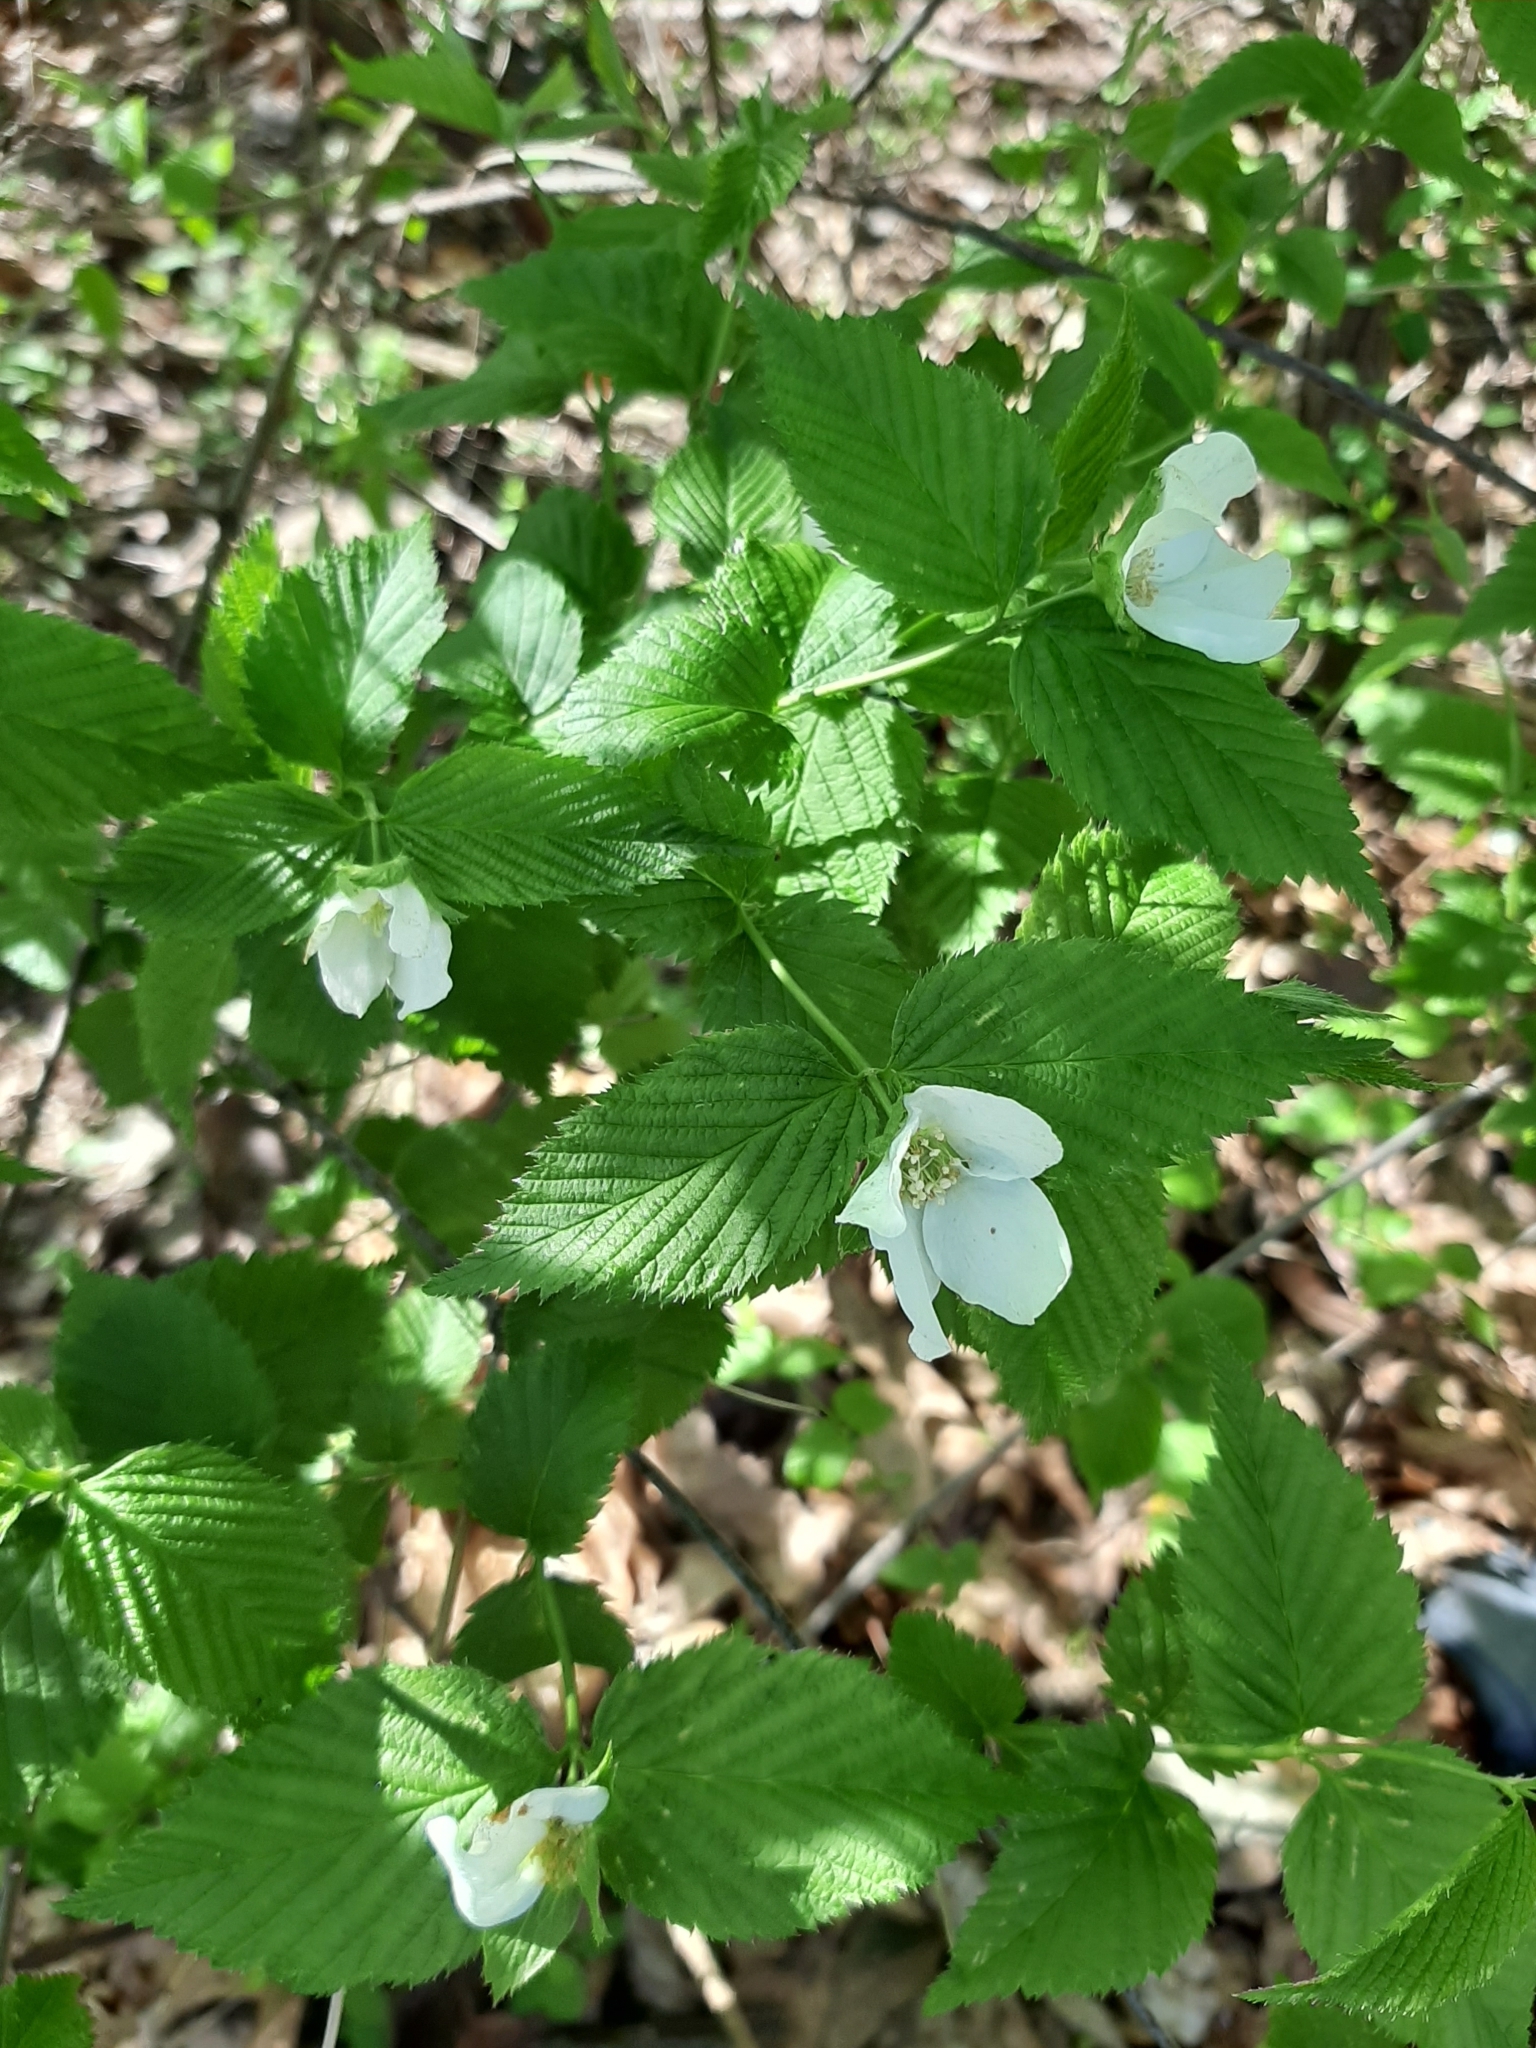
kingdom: Plantae
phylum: Tracheophyta
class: Magnoliopsida
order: Rosales
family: Rosaceae
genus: Rhodotypos
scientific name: Rhodotypos scandens
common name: Jetbead
